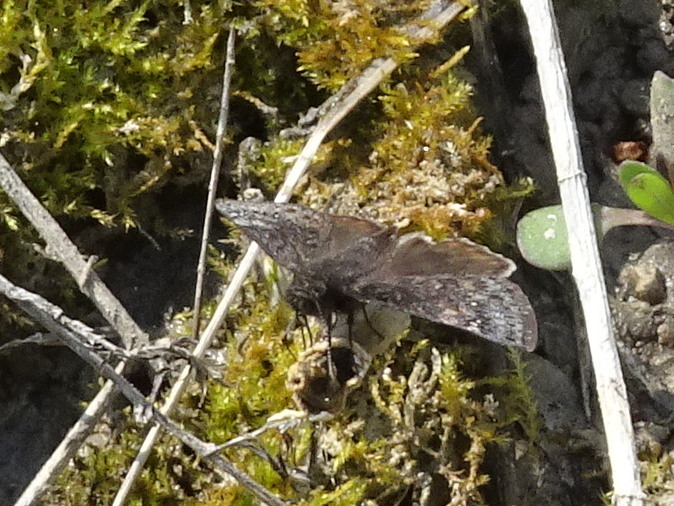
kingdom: Animalia
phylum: Arthropoda
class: Insecta
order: Lepidoptera
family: Hesperiidae
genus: Erynnis
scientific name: Erynnis juvenalis
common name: Juvenal's duskywing
